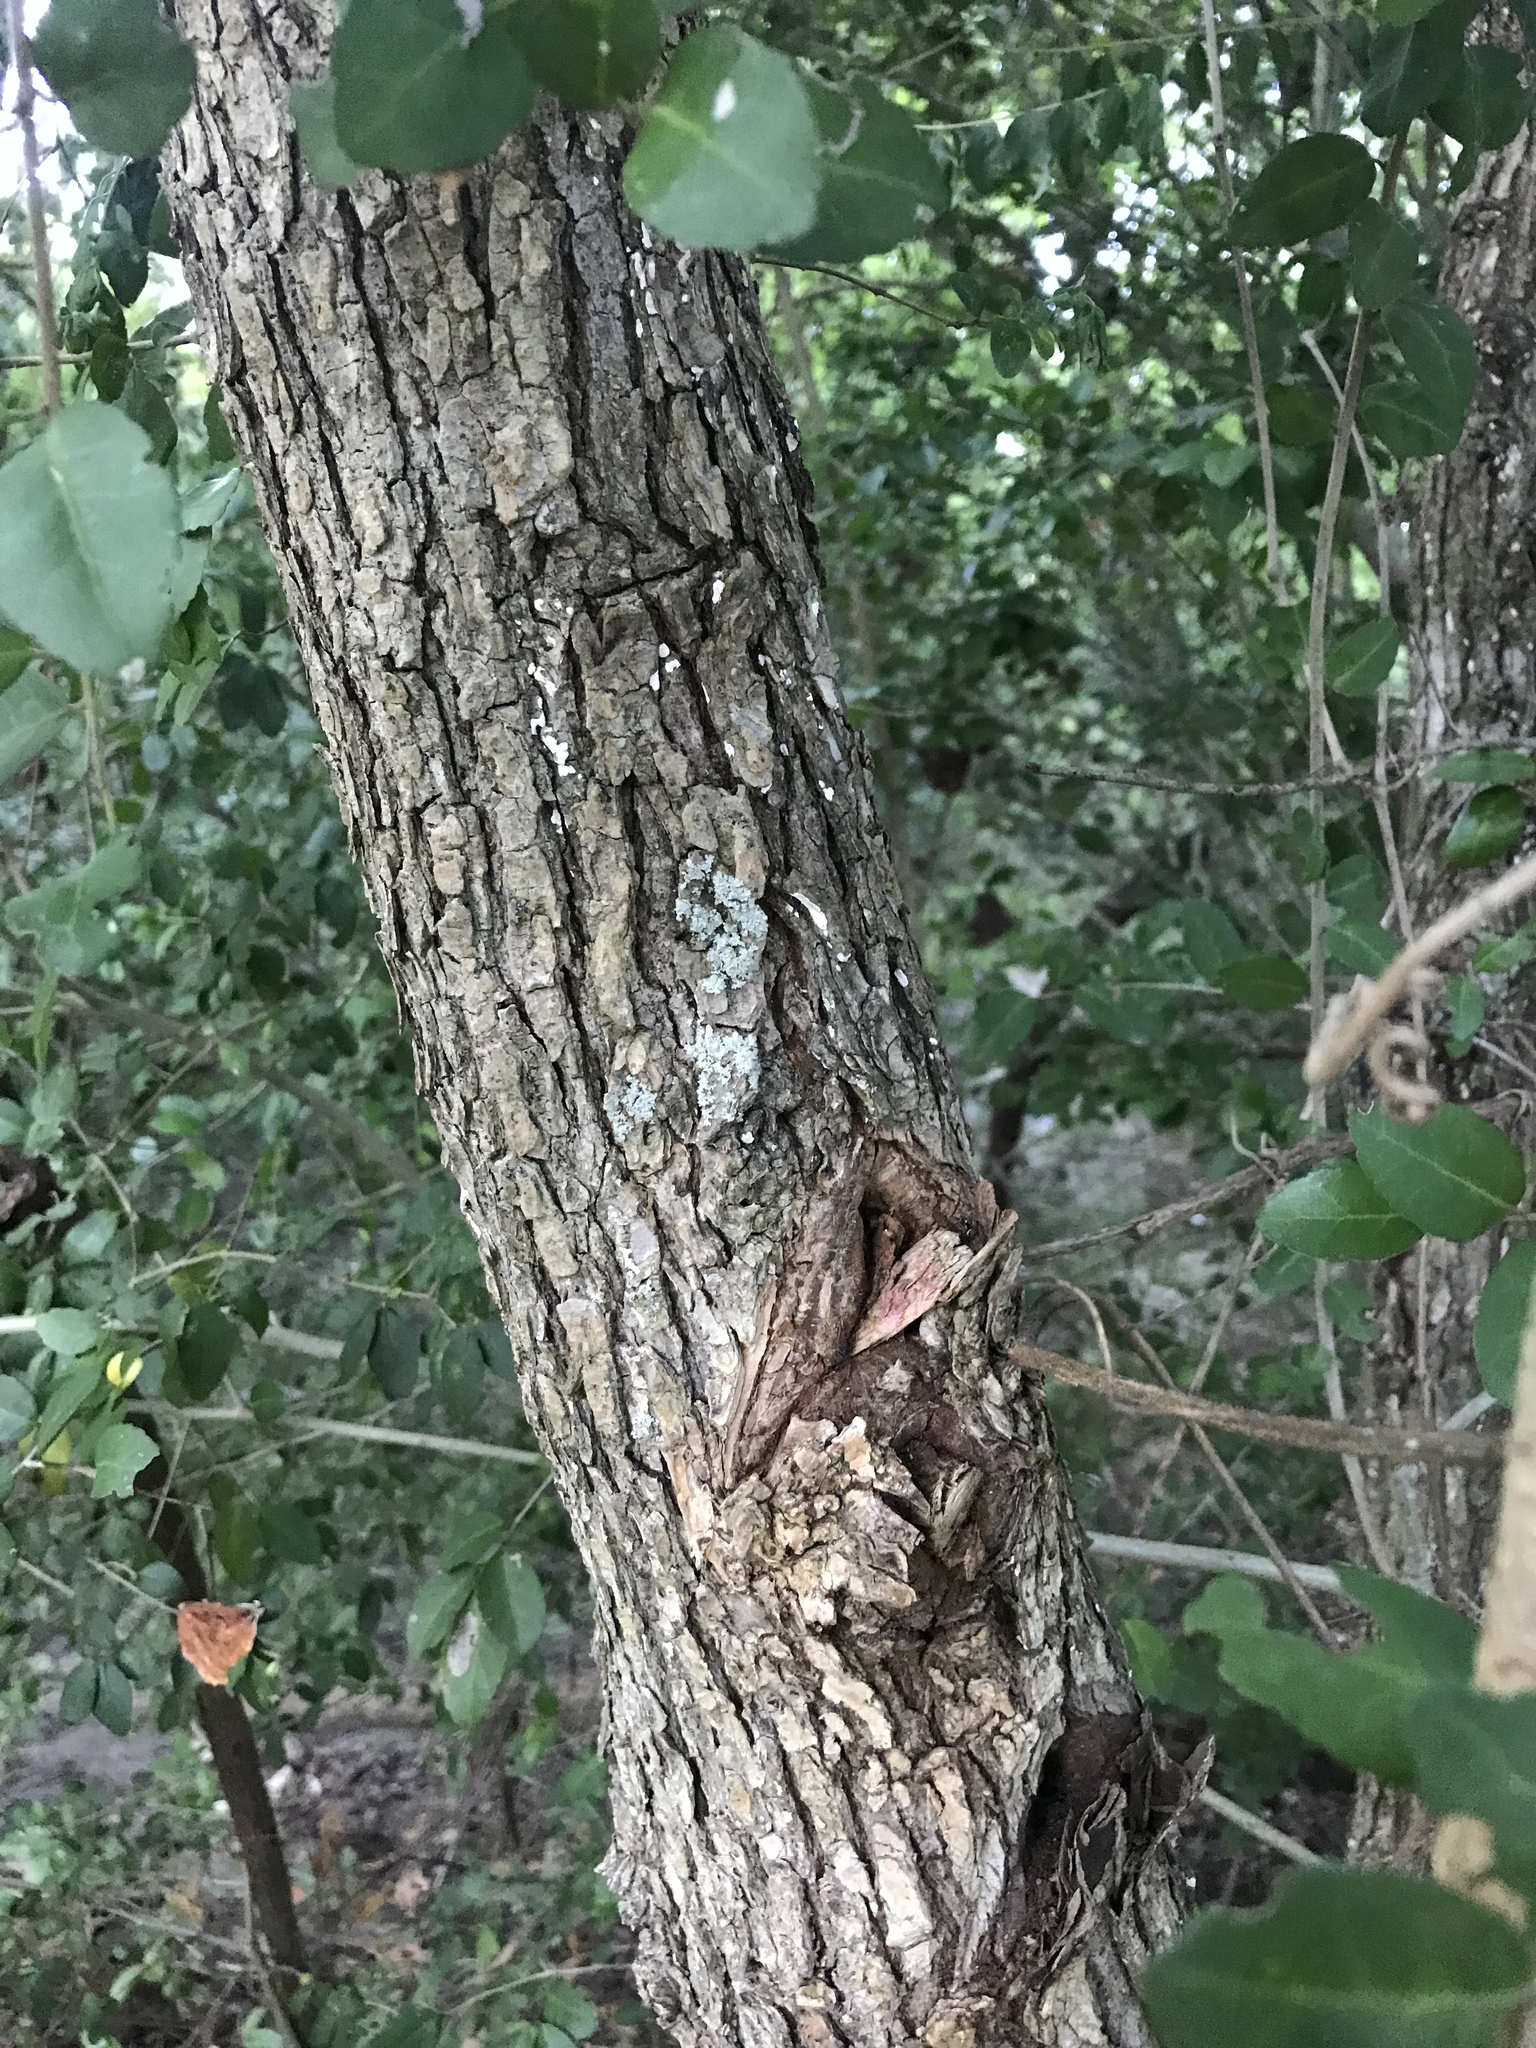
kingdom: Plantae
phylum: Tracheophyta
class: Magnoliopsida
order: Rosales
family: Ulmaceae
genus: Ulmus
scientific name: Ulmus alata
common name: Winged elm
